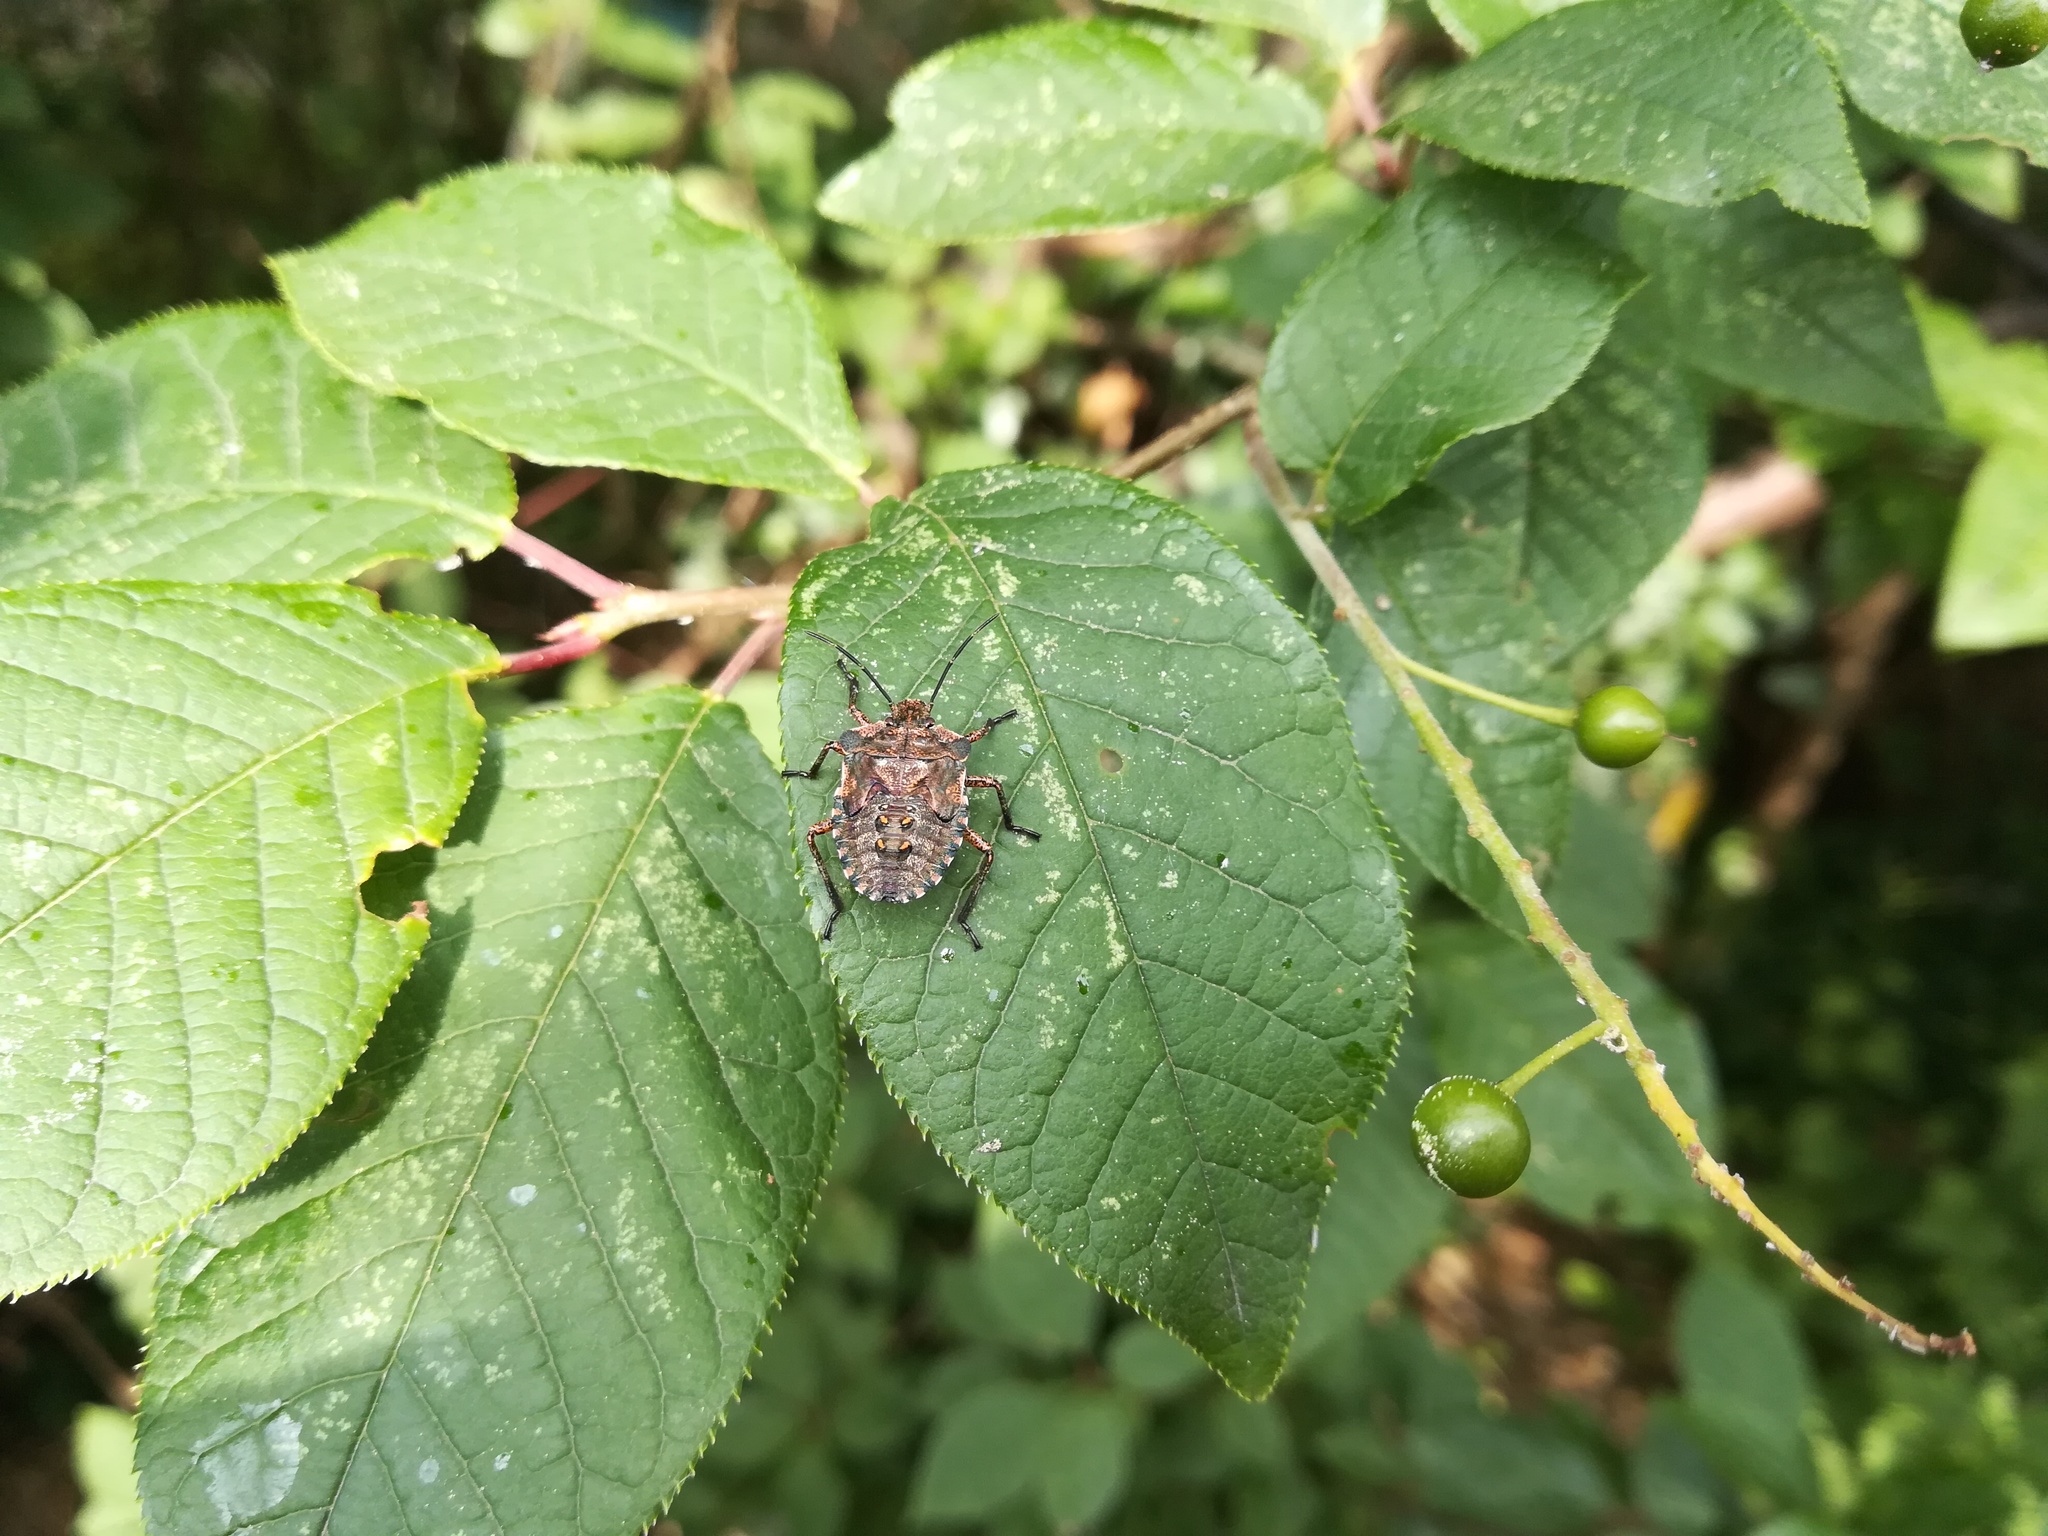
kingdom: Animalia
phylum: Arthropoda
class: Insecta
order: Hemiptera
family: Pentatomidae
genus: Pentatoma
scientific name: Pentatoma rufipes
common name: Forest bug
